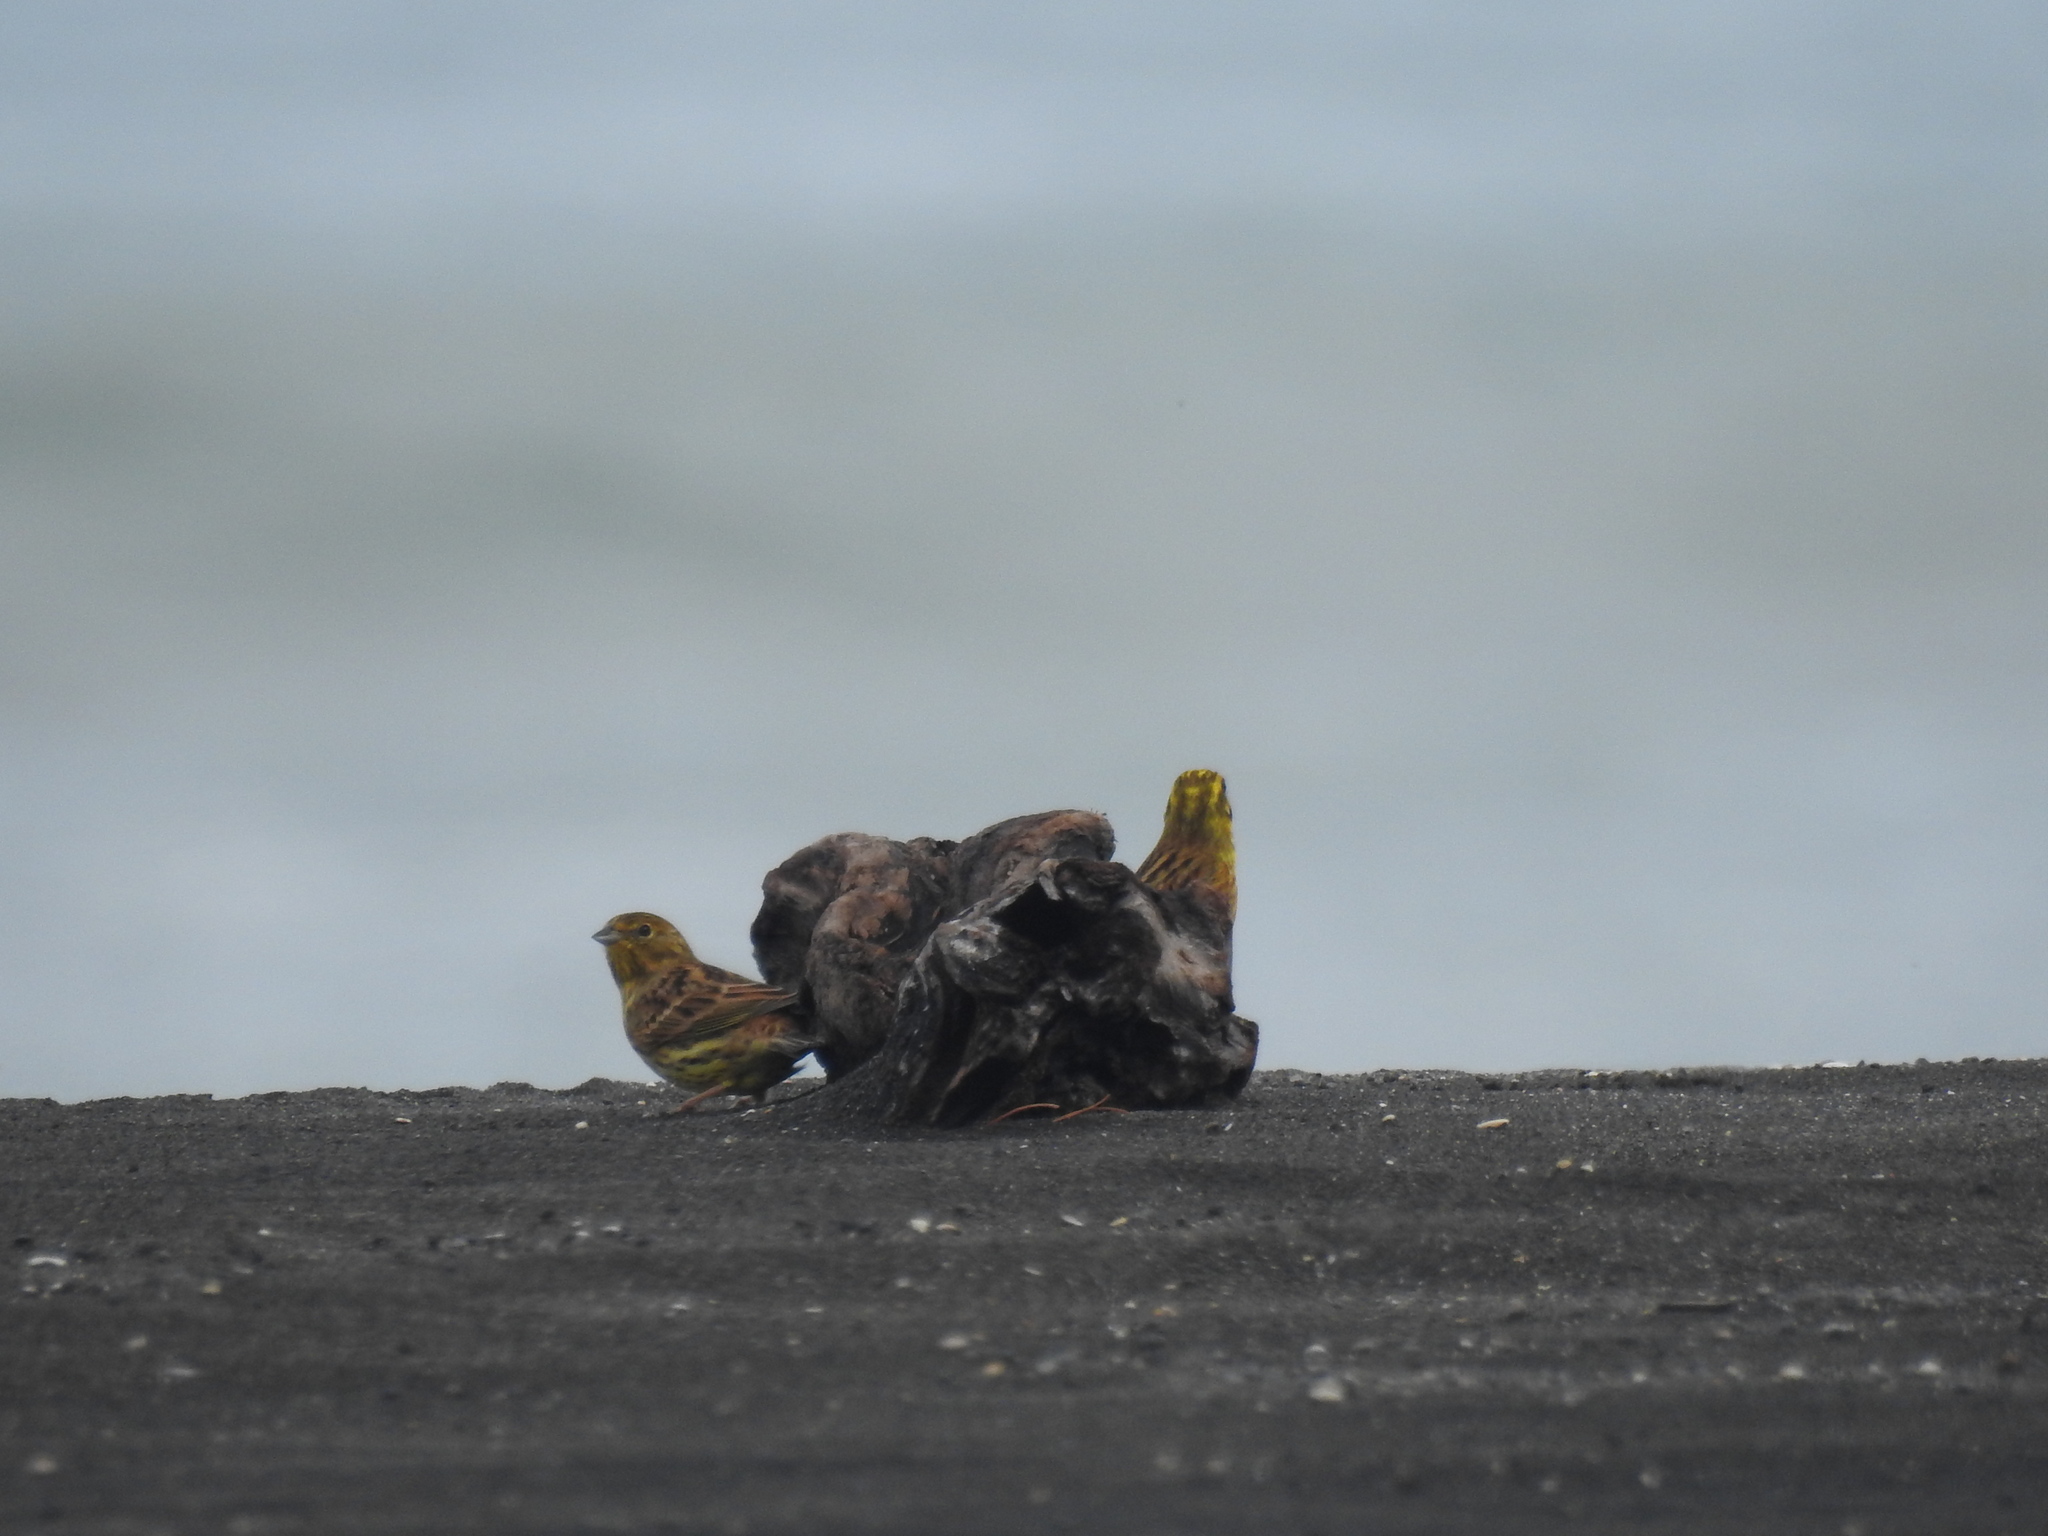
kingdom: Animalia
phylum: Chordata
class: Aves
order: Passeriformes
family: Emberizidae
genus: Emberiza
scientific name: Emberiza citrinella
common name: Yellowhammer
